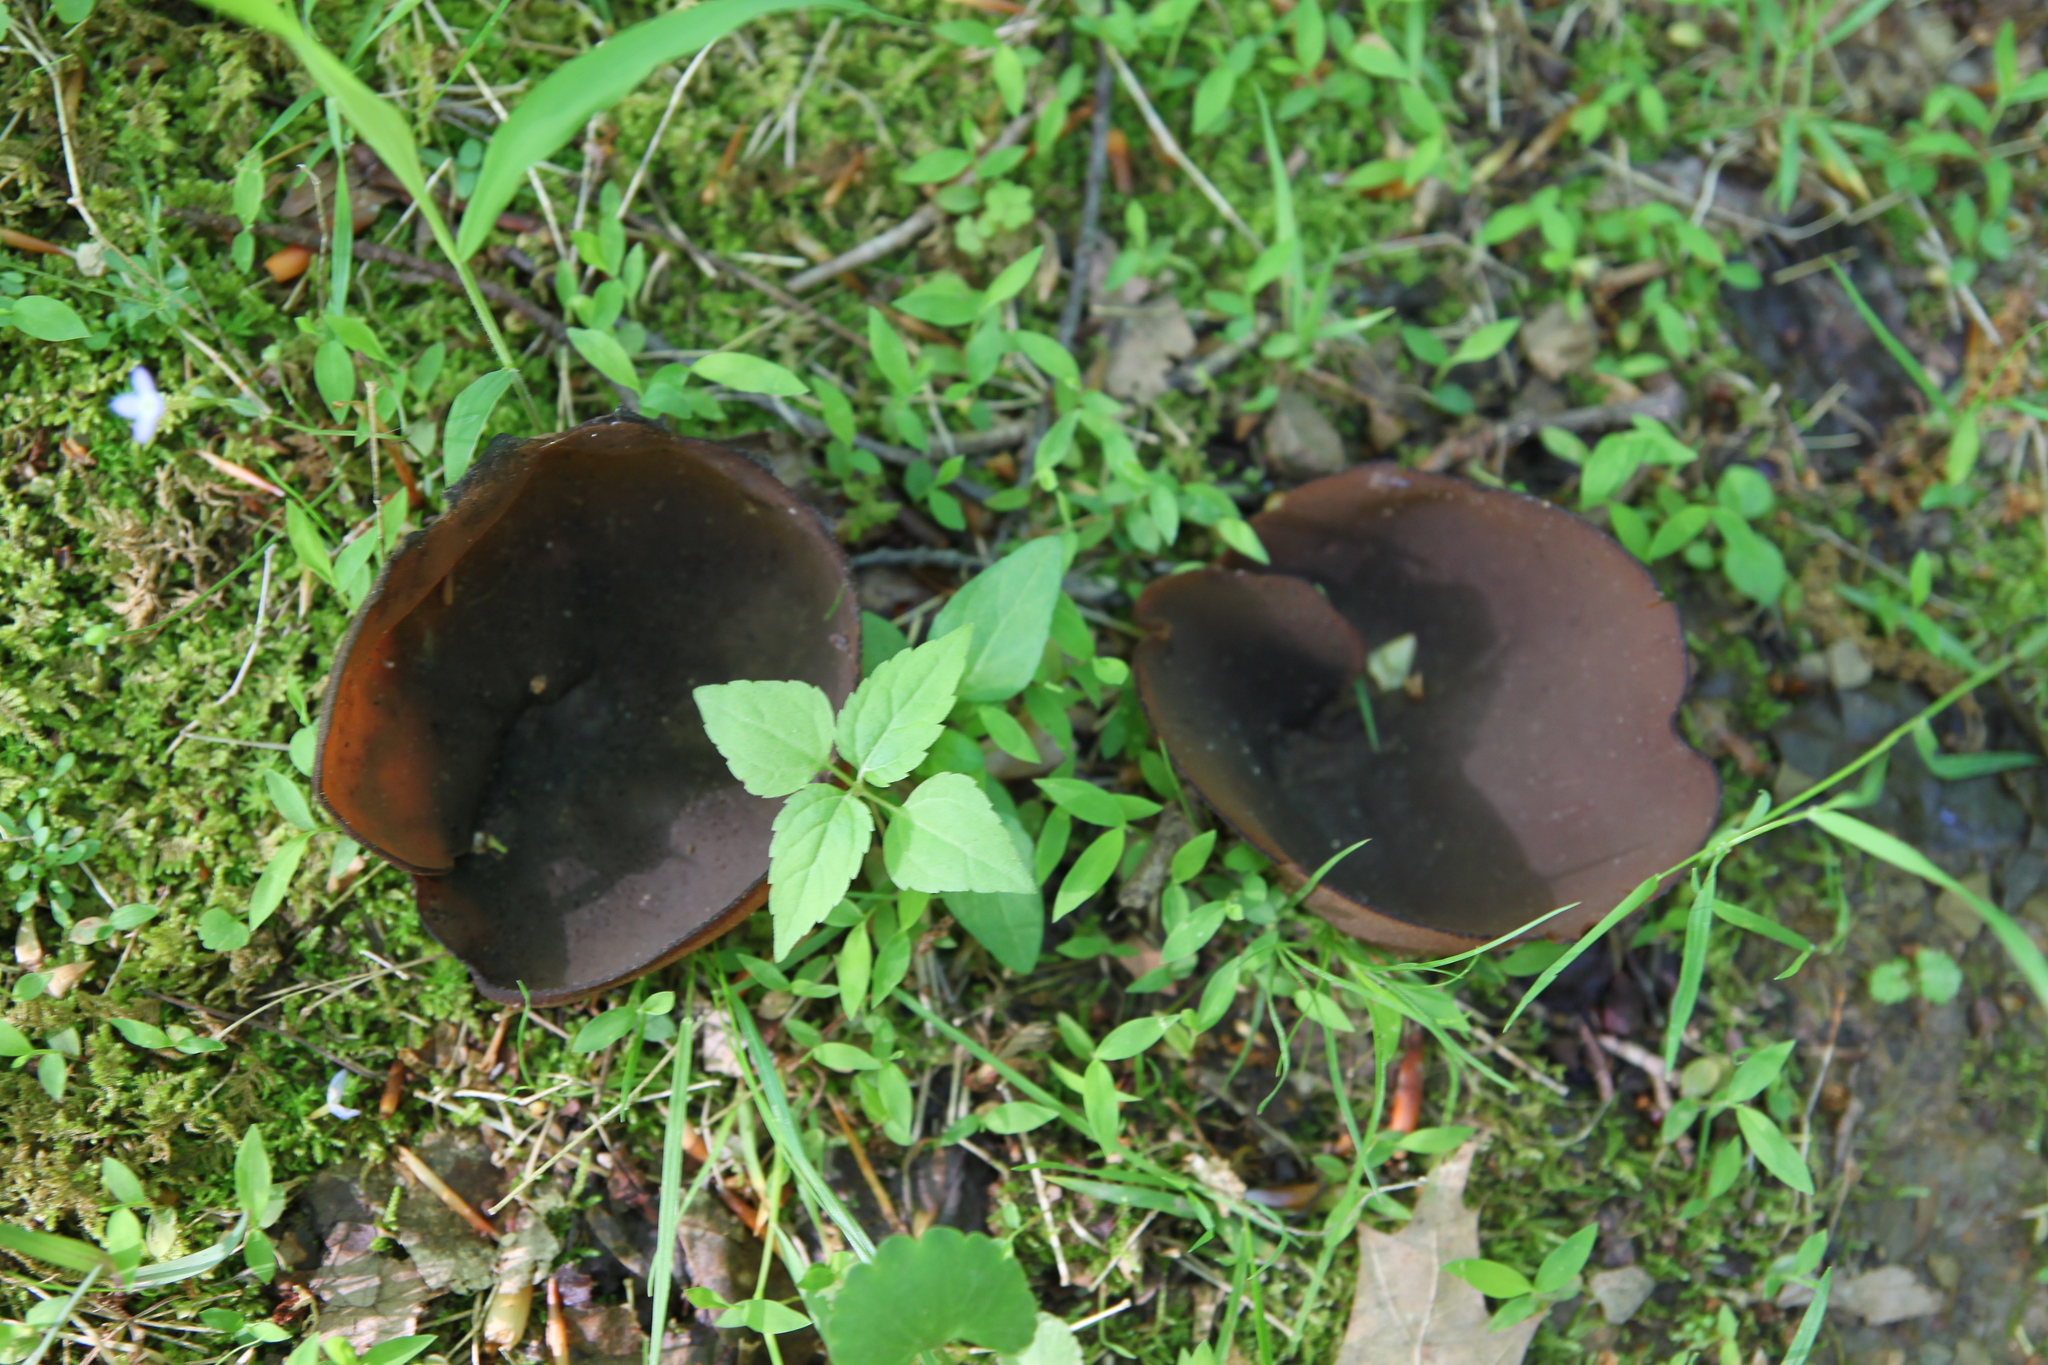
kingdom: Fungi
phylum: Ascomycota
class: Pezizomycetes
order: Pezizales
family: Pezizaceae
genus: Phylloscypha
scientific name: Phylloscypha phyllogena
